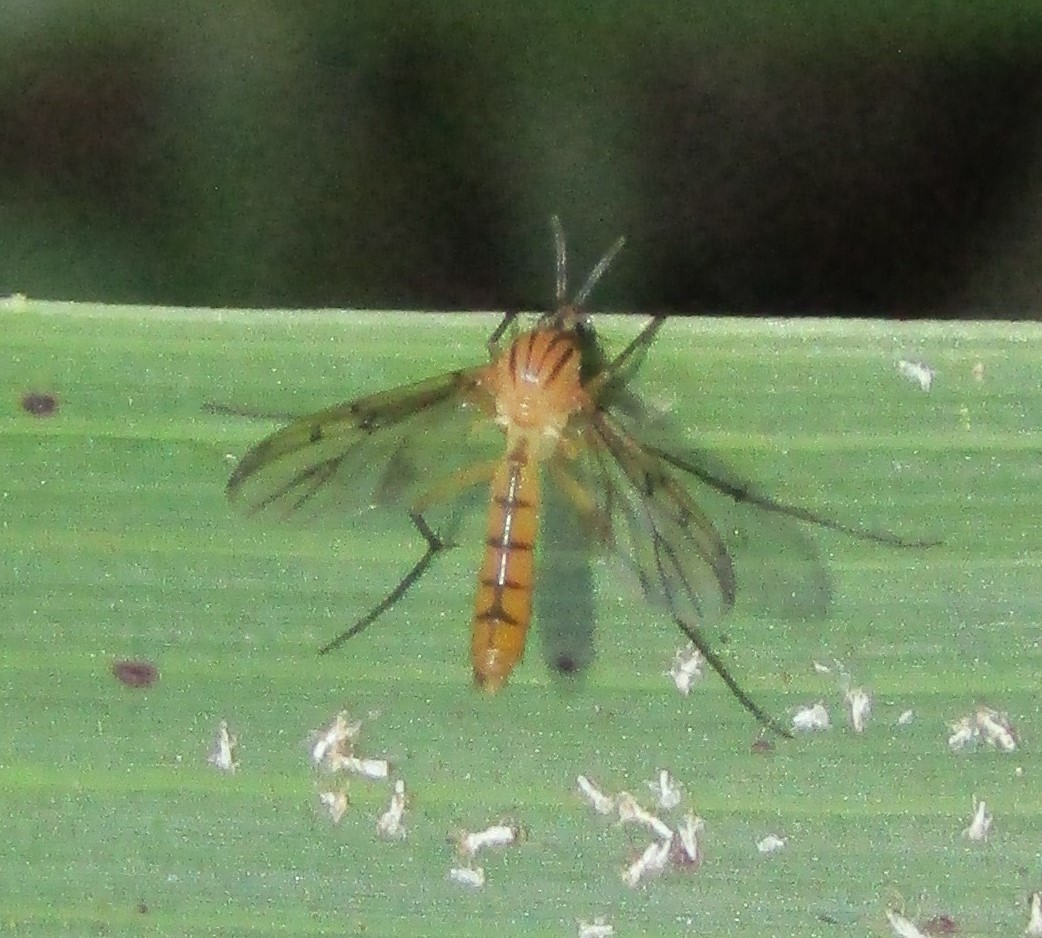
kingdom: Animalia
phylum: Arthropoda
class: Insecta
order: Diptera
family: Mycetophilidae
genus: Neoempheria
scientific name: Neoempheria balioptera
